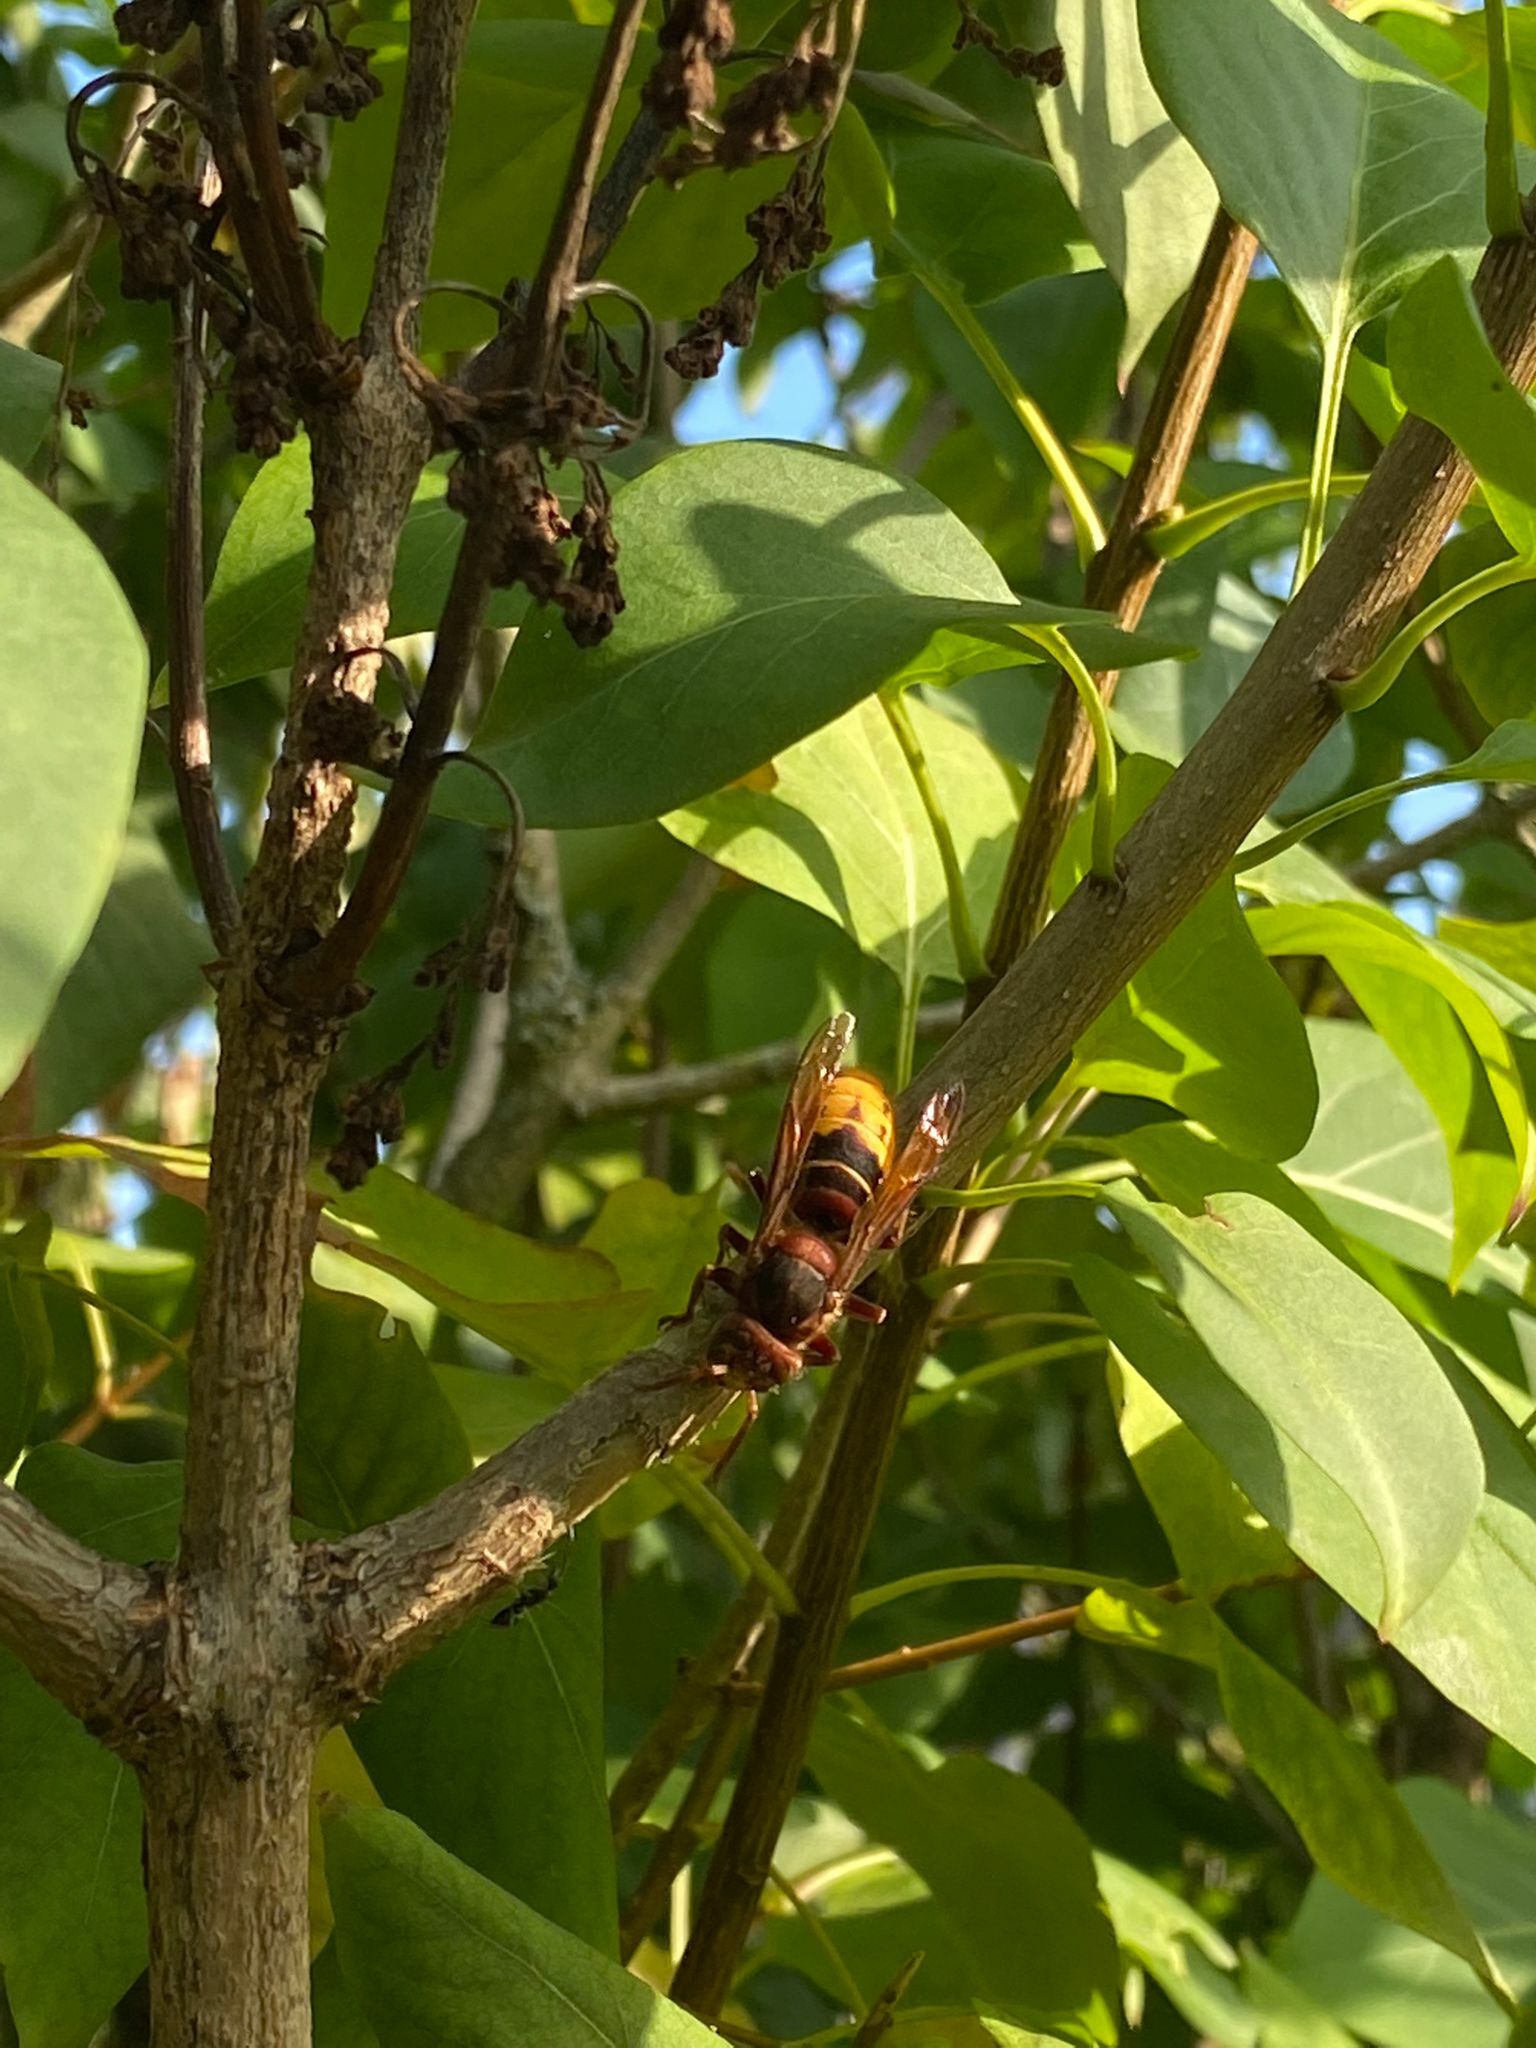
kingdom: Animalia
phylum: Arthropoda
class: Insecta
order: Hymenoptera
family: Vespidae
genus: Vespa
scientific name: Vespa crabro
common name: Hornet
